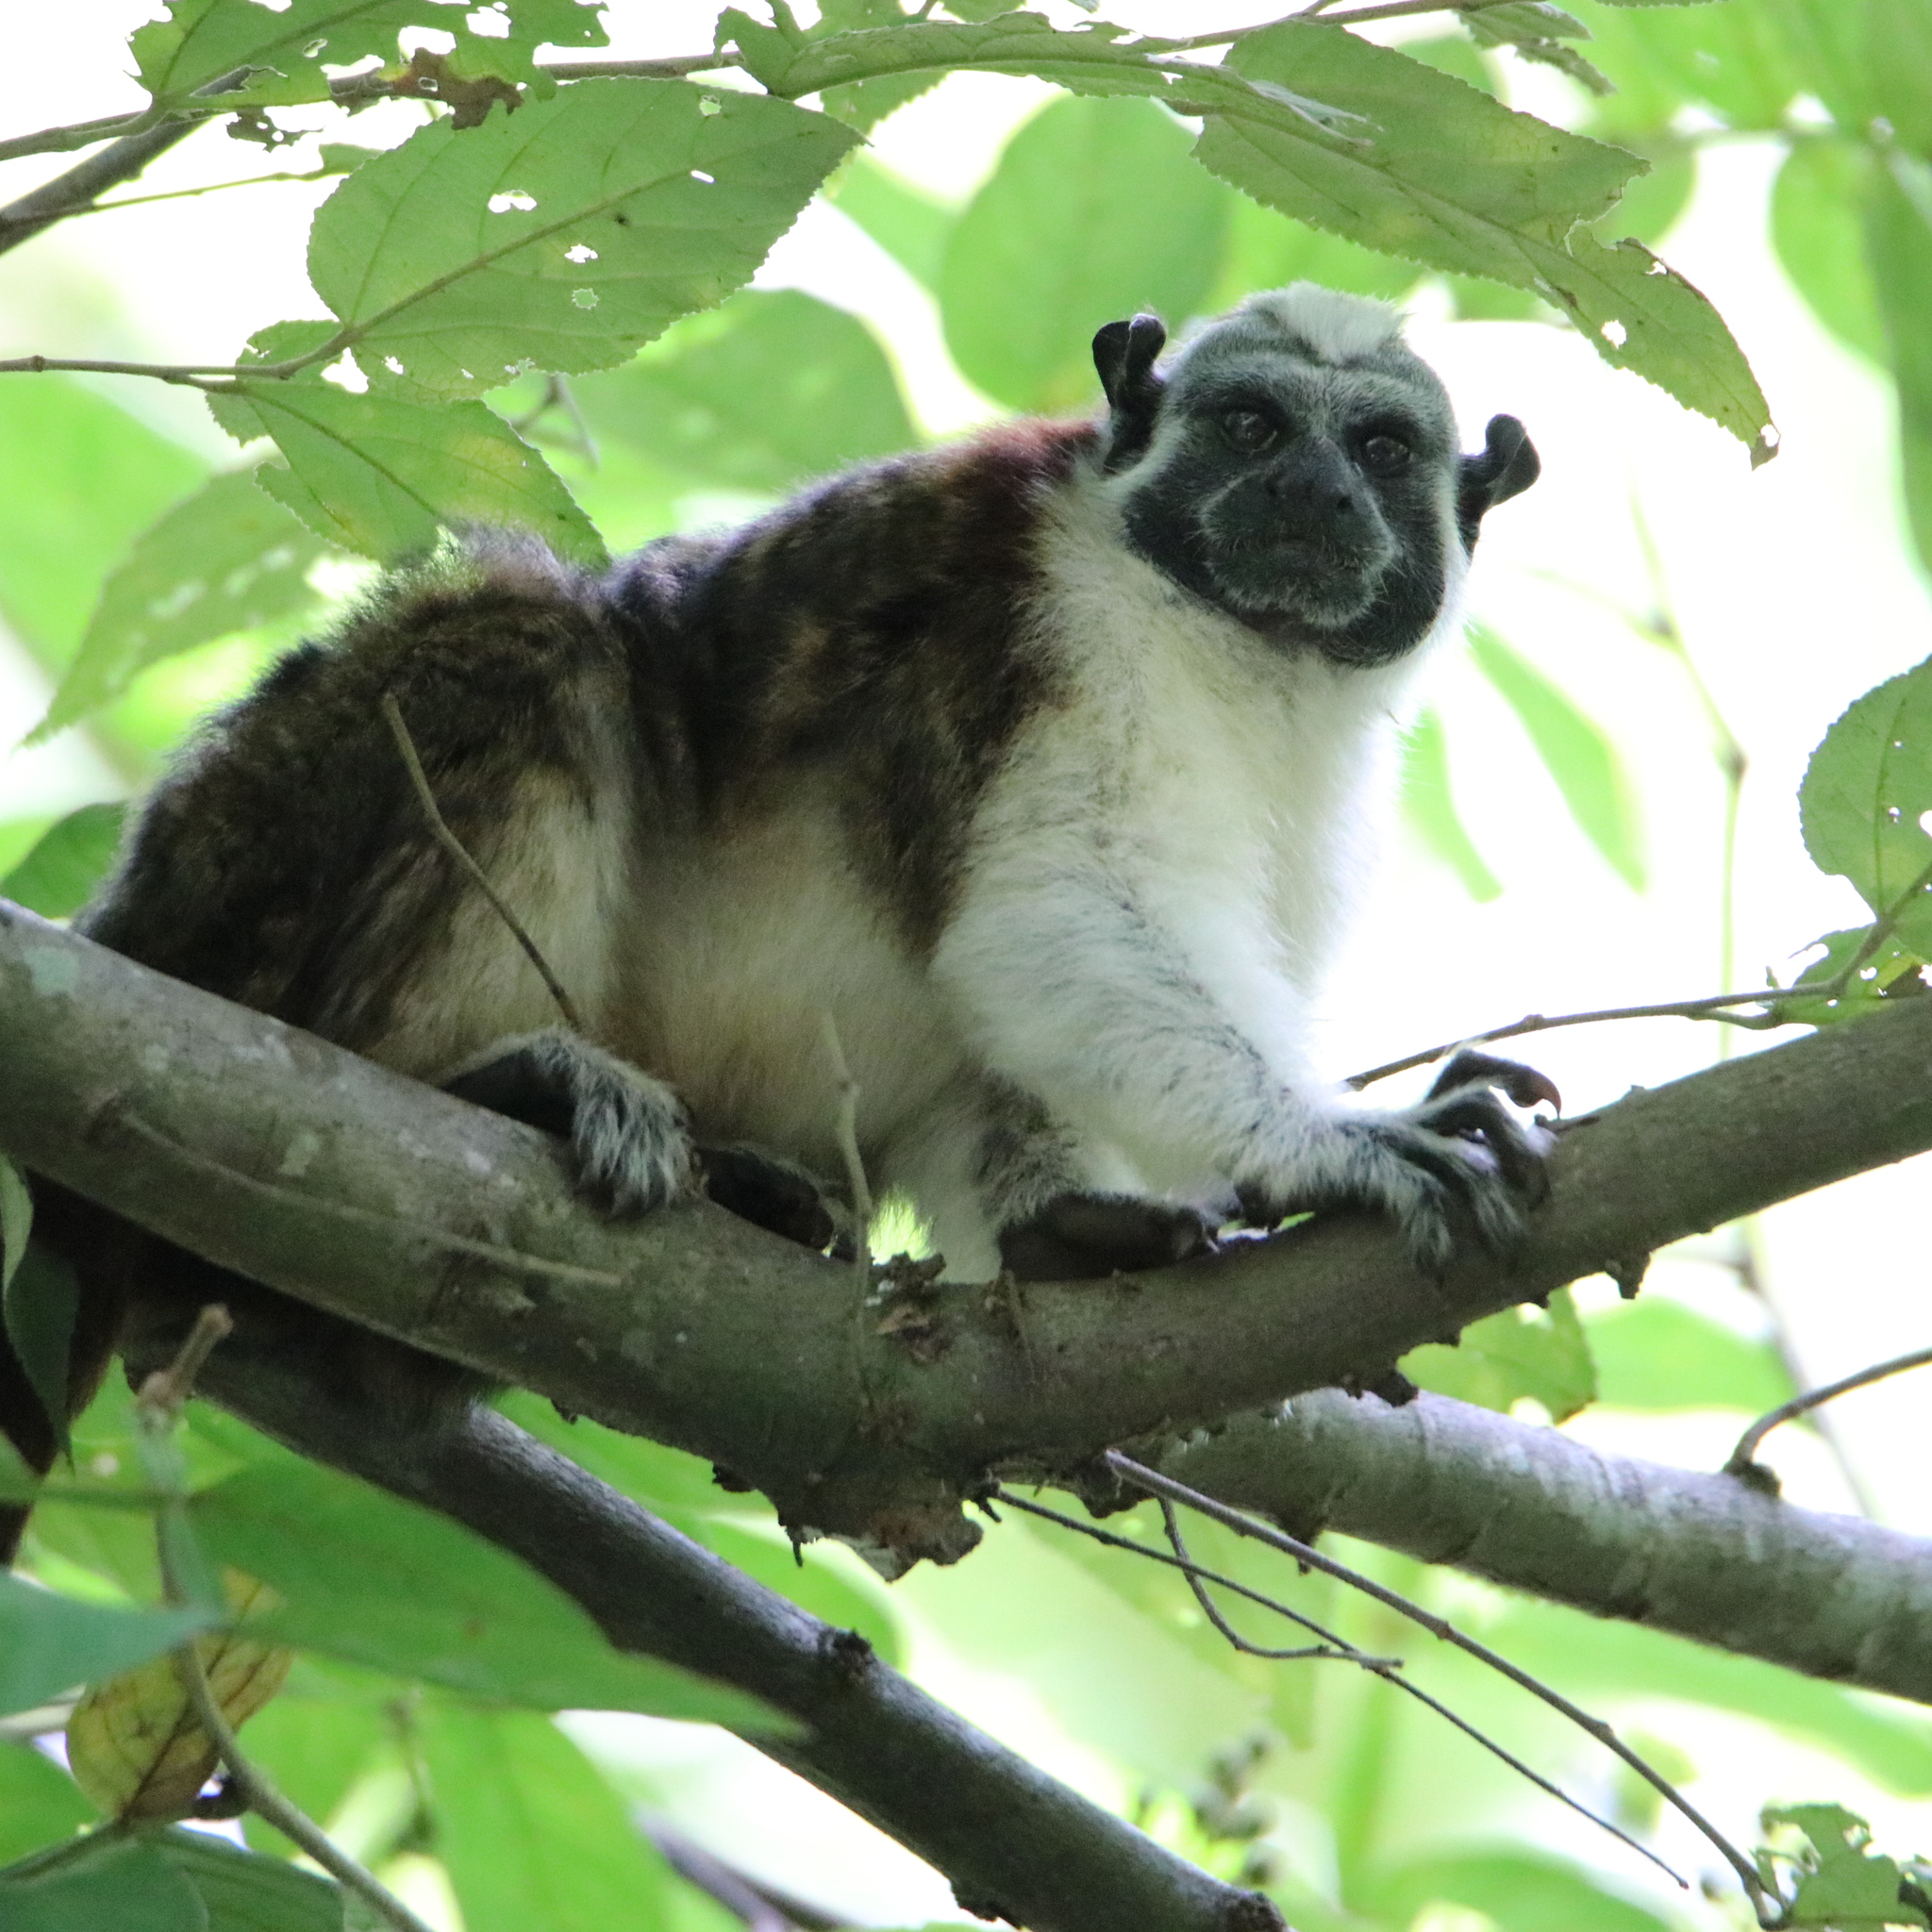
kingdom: Animalia
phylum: Chordata
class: Mammalia
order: Primates
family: Callitrichidae
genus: Saguinus
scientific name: Saguinus geoffroyi
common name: Geoffroy s tamarin
